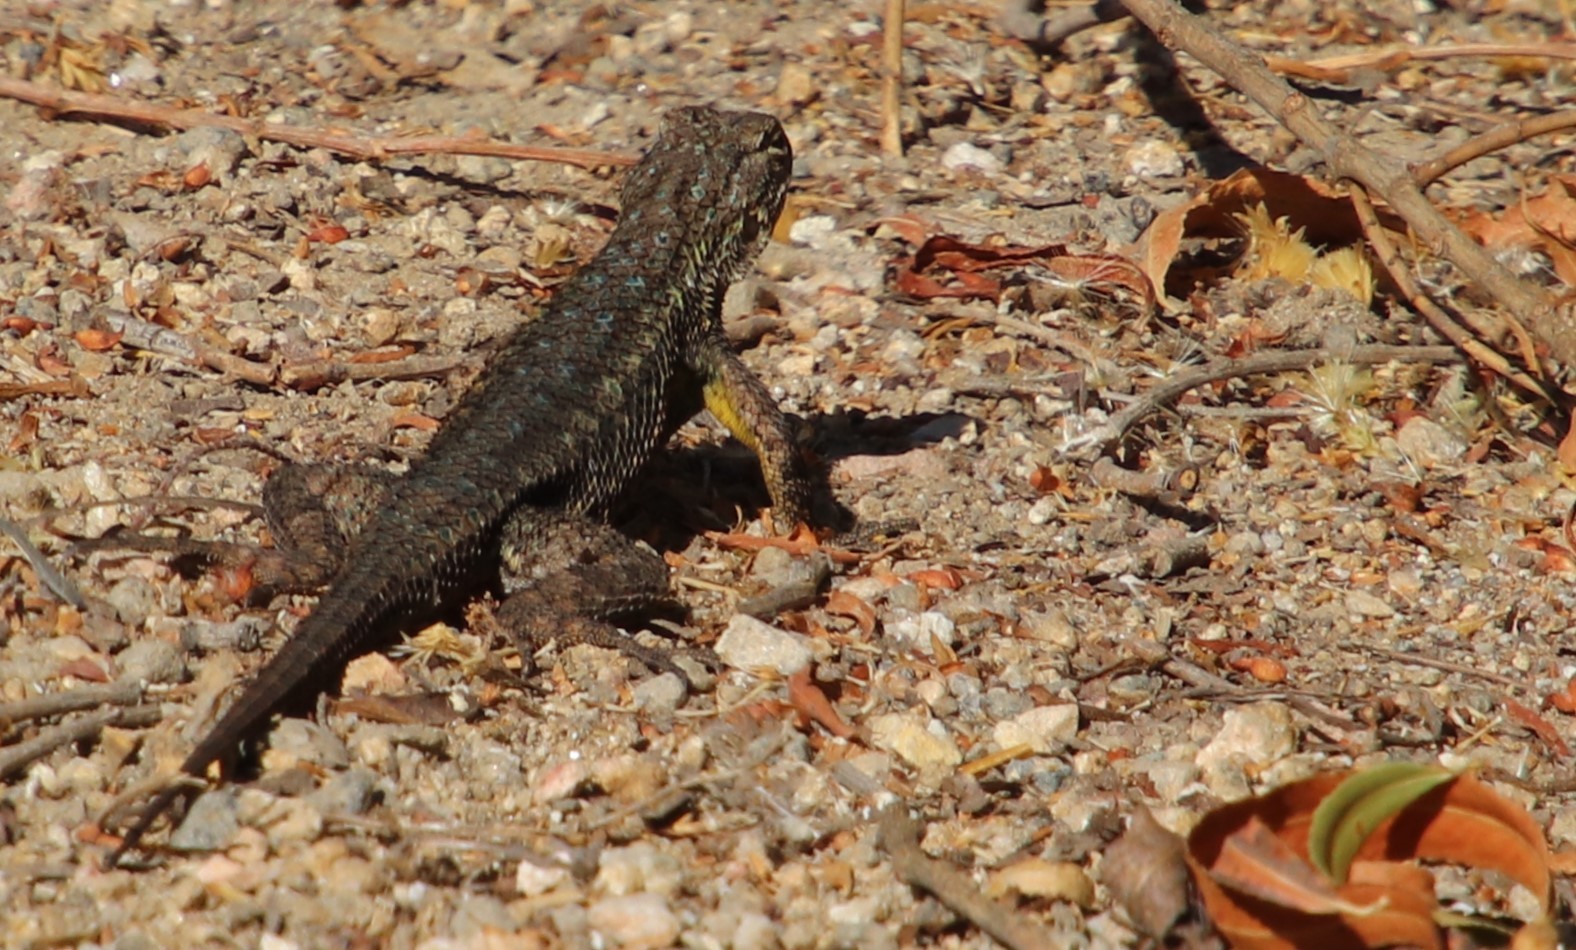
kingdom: Animalia
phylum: Chordata
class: Squamata
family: Phrynosomatidae
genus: Sceloporus
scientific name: Sceloporus occidentalis
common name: Western fence lizard
